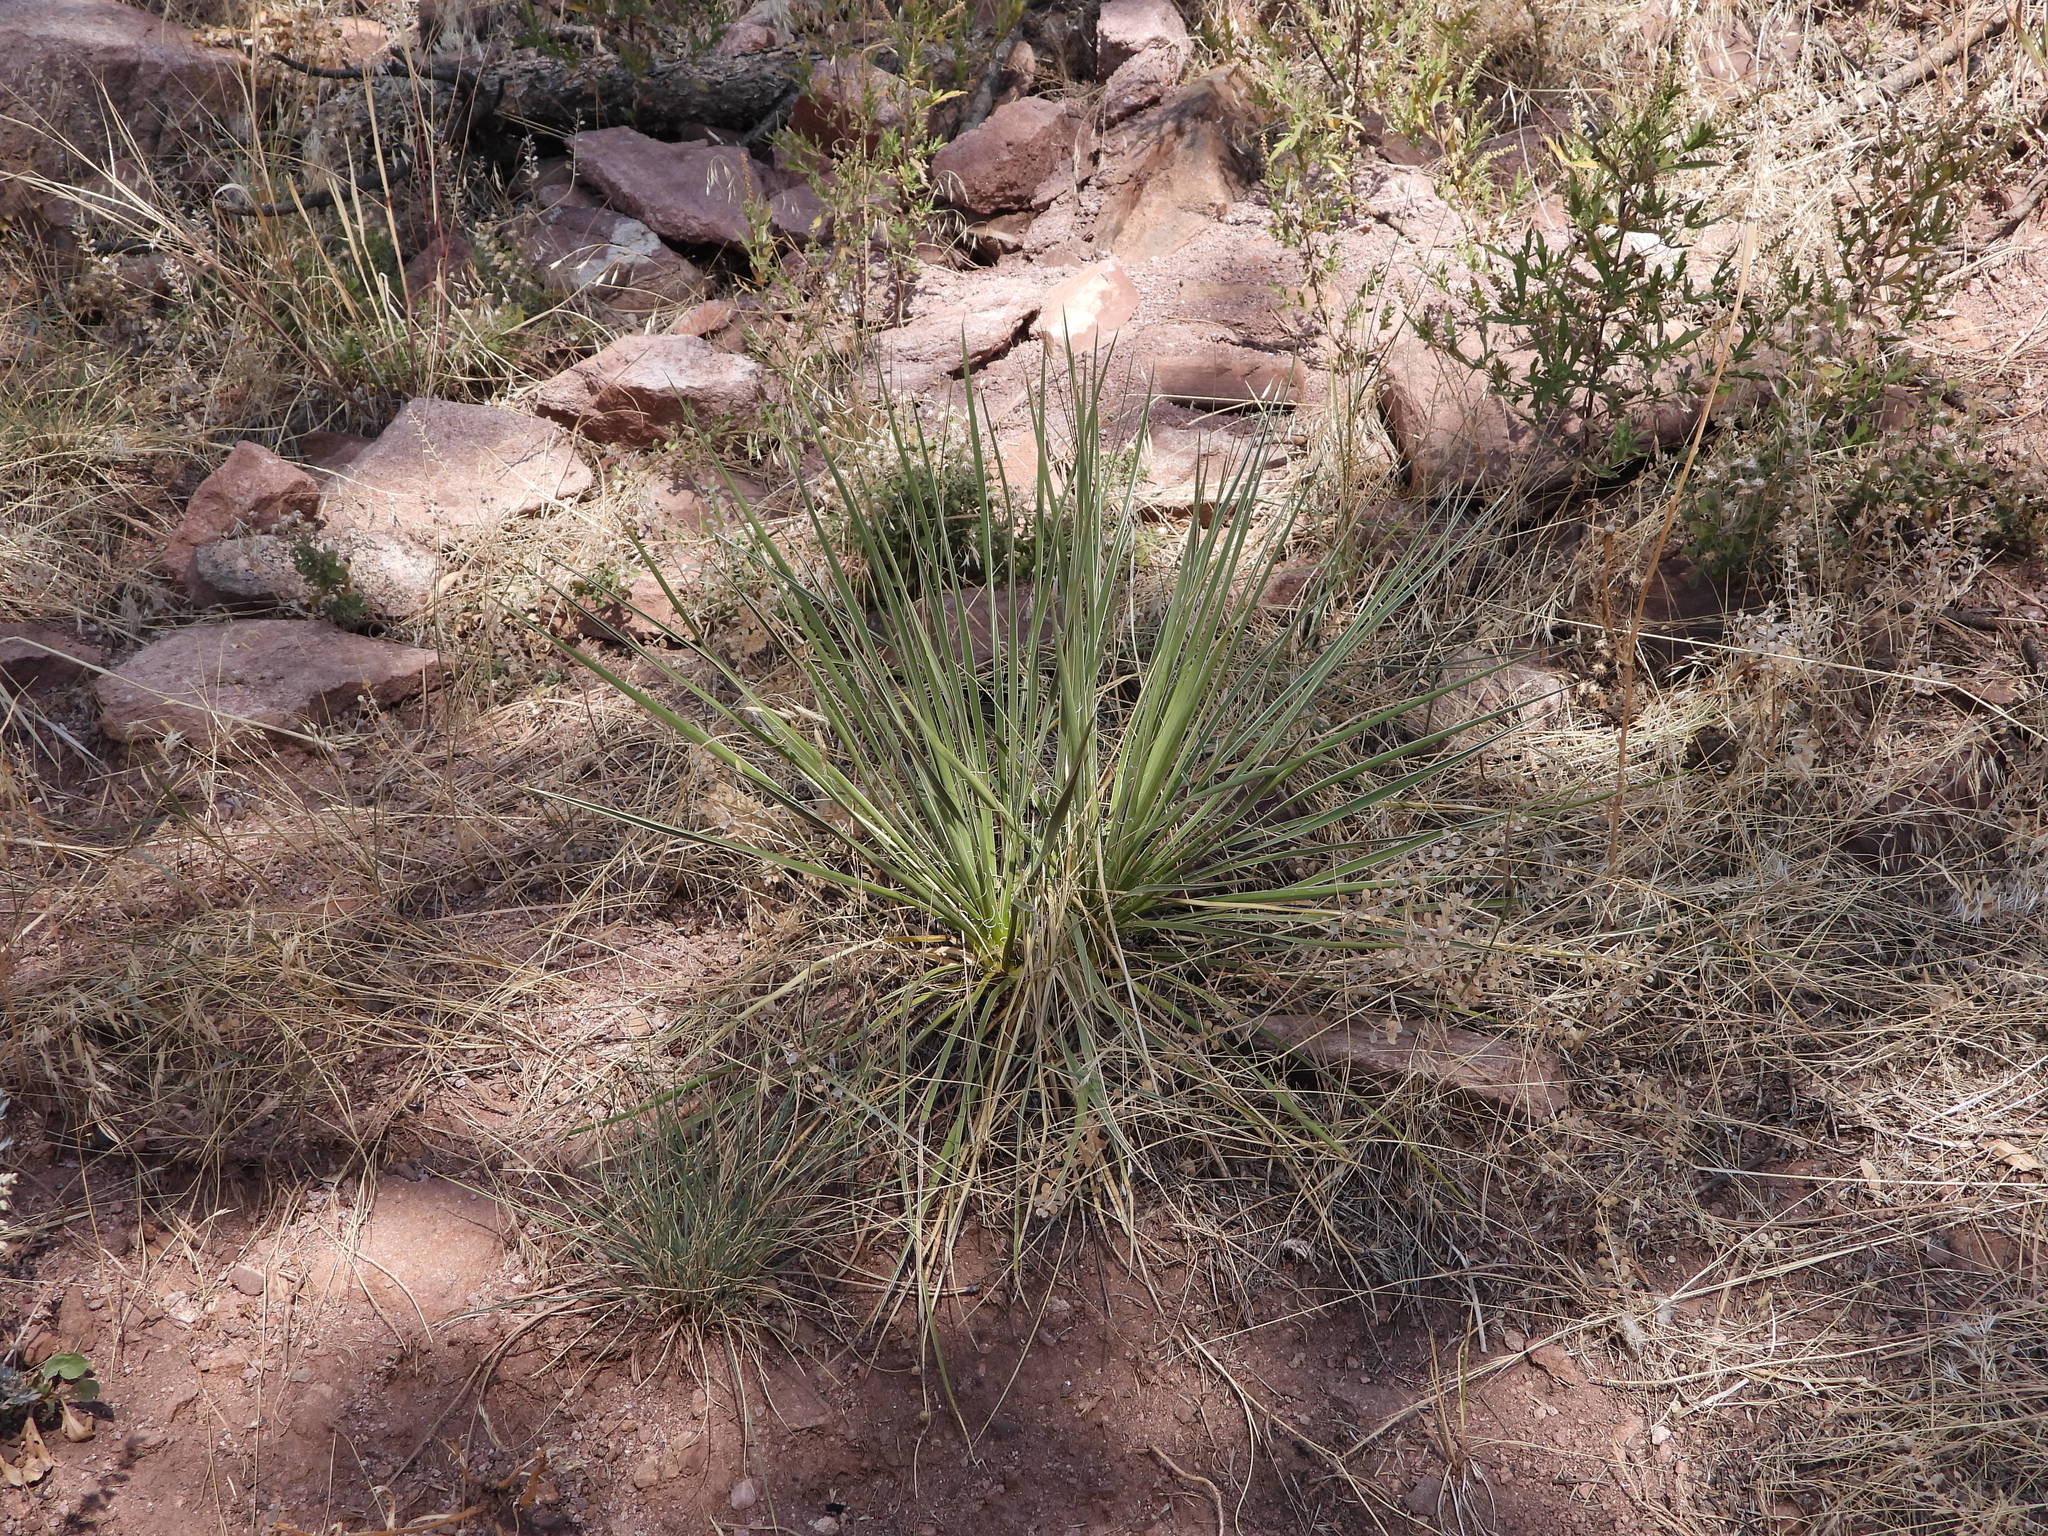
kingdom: Plantae
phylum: Tracheophyta
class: Liliopsida
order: Asparagales
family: Asparagaceae
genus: Yucca
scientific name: Yucca glauca
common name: Great plains yucca
